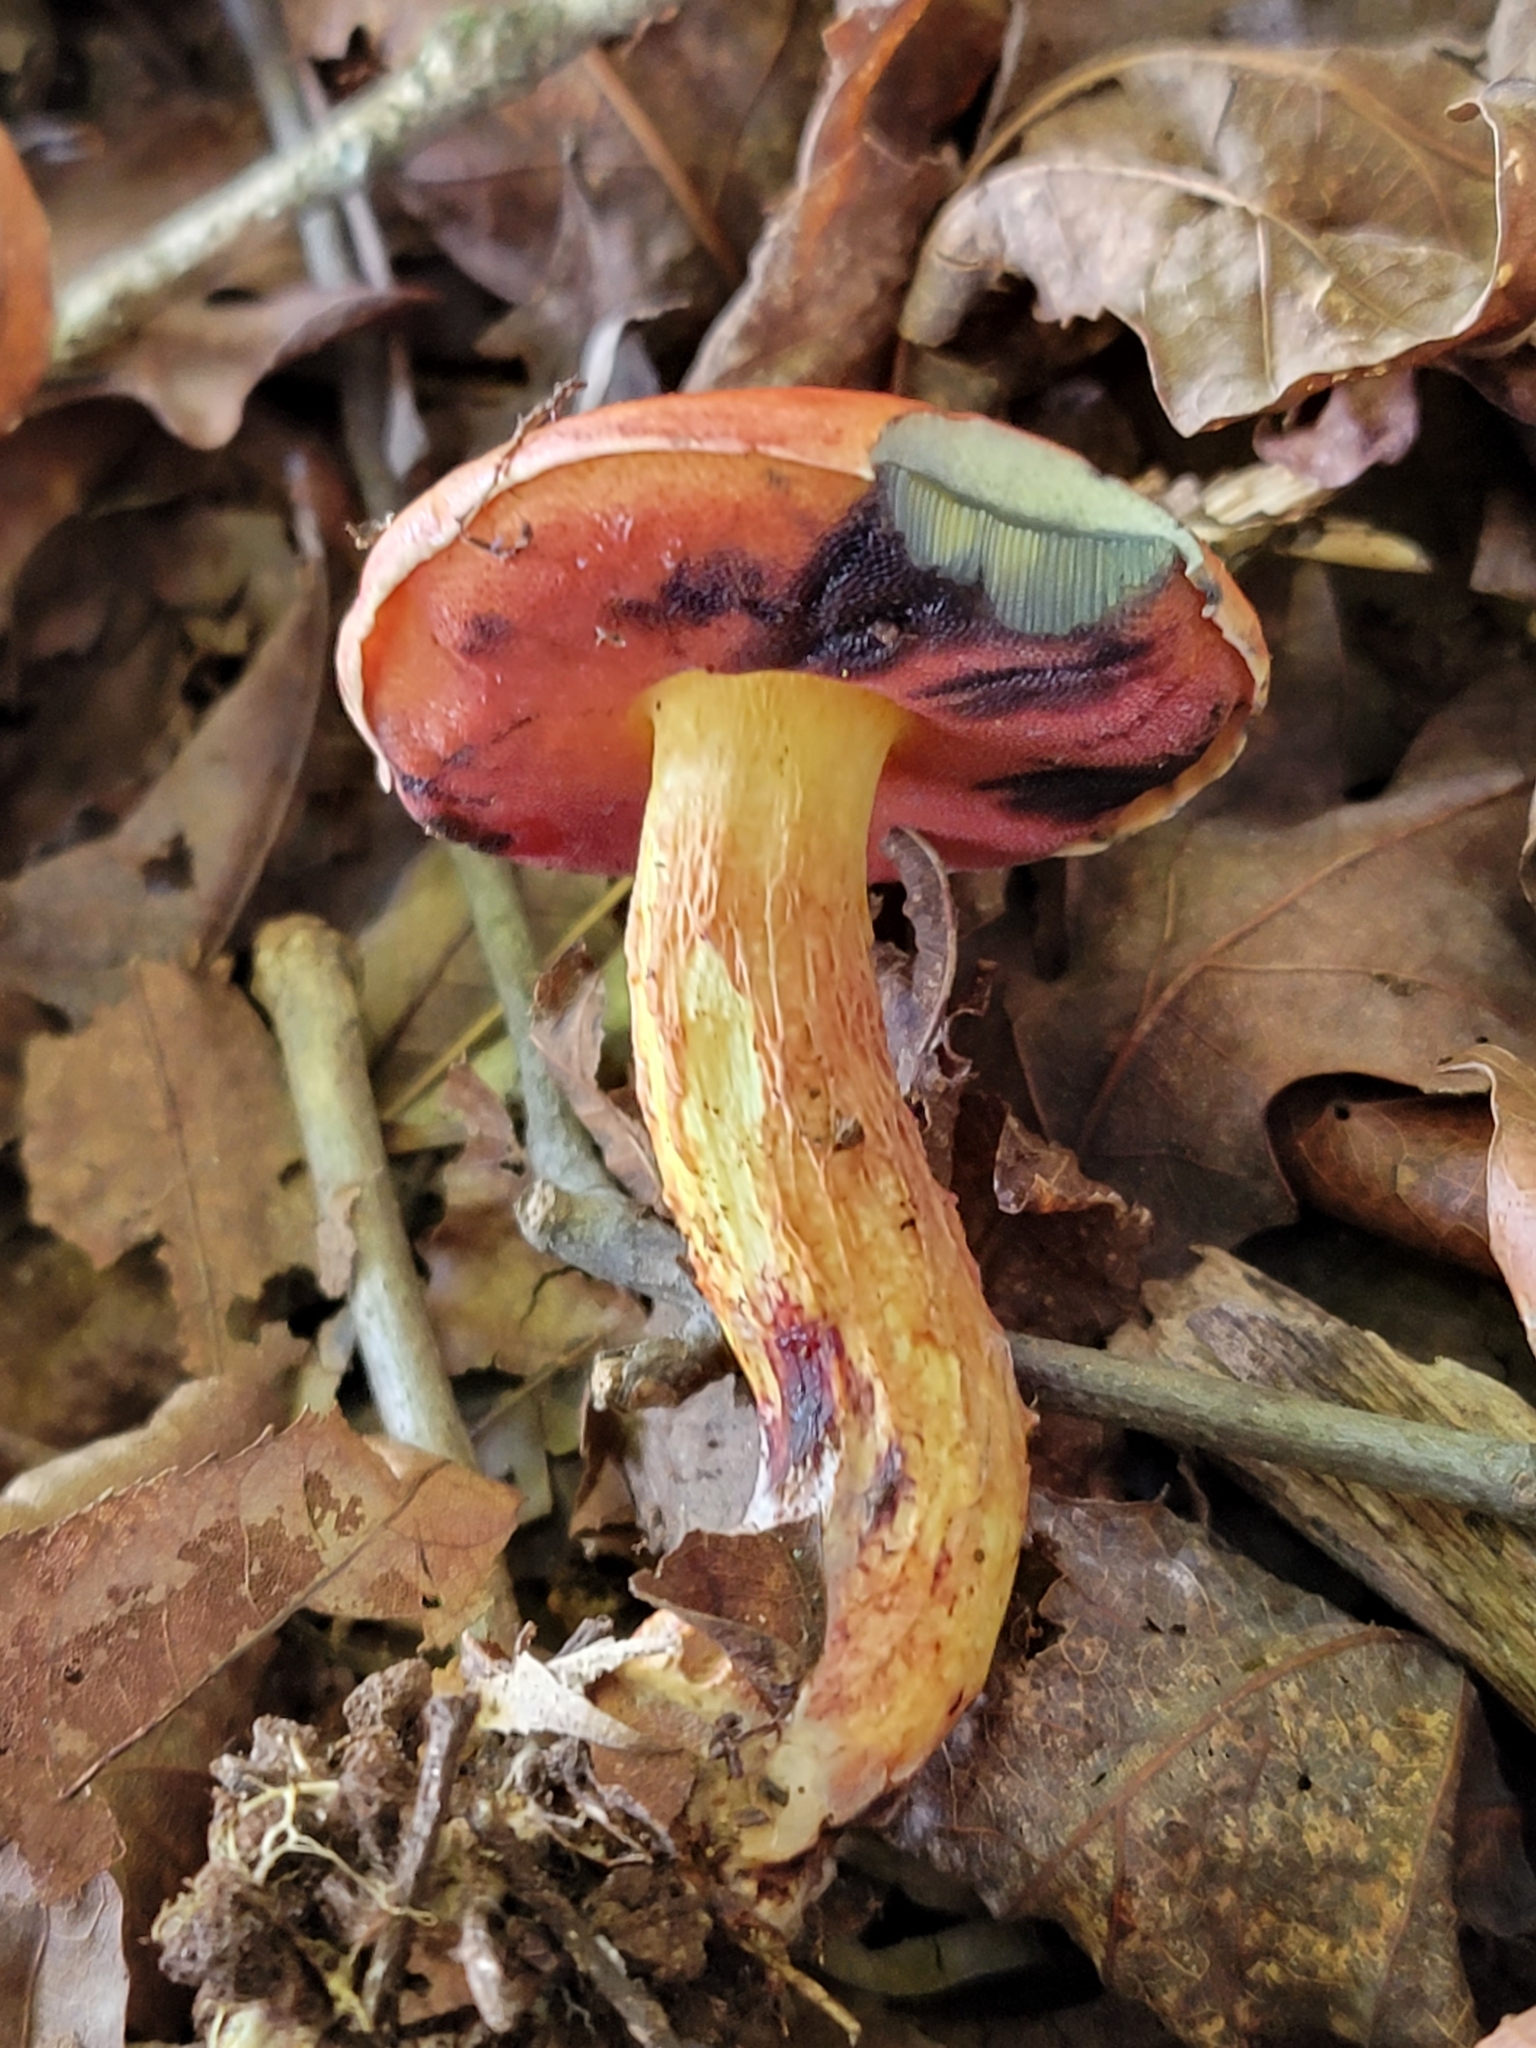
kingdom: Fungi
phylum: Basidiomycota
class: Agaricomycetes
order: Boletales
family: Boletaceae
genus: Butyriboletus
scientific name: Butyriboletus frostii
